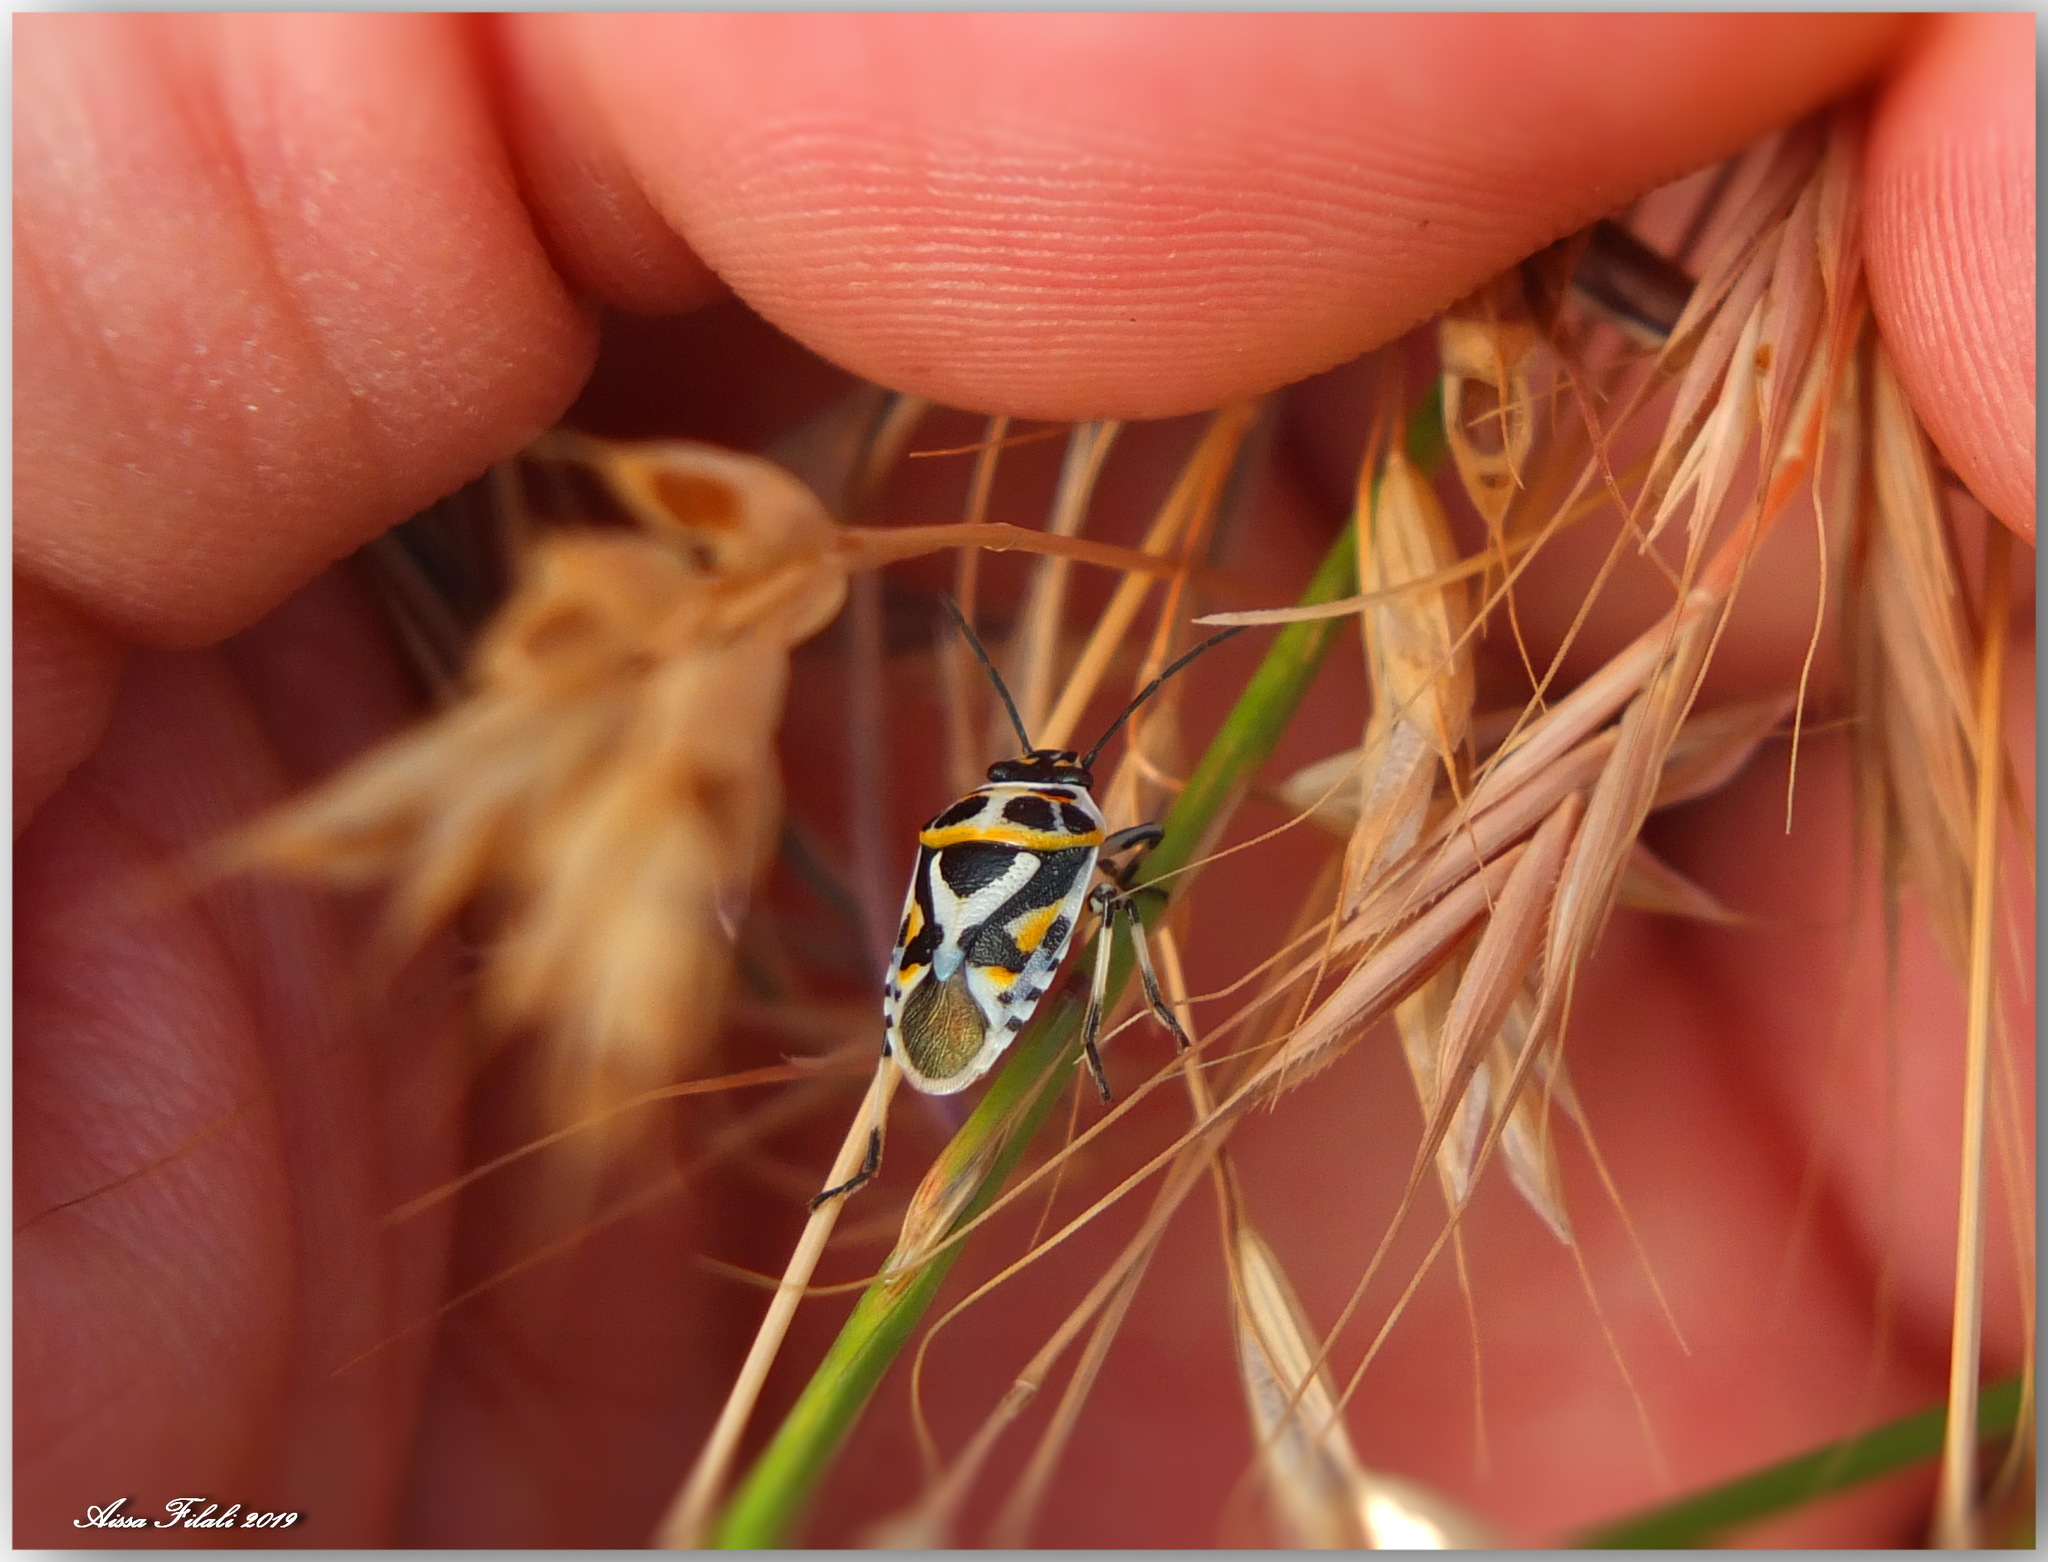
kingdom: Animalia
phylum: Arthropoda
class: Insecta
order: Hemiptera
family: Pentatomidae
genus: Eurydema
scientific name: Eurydema ornata
